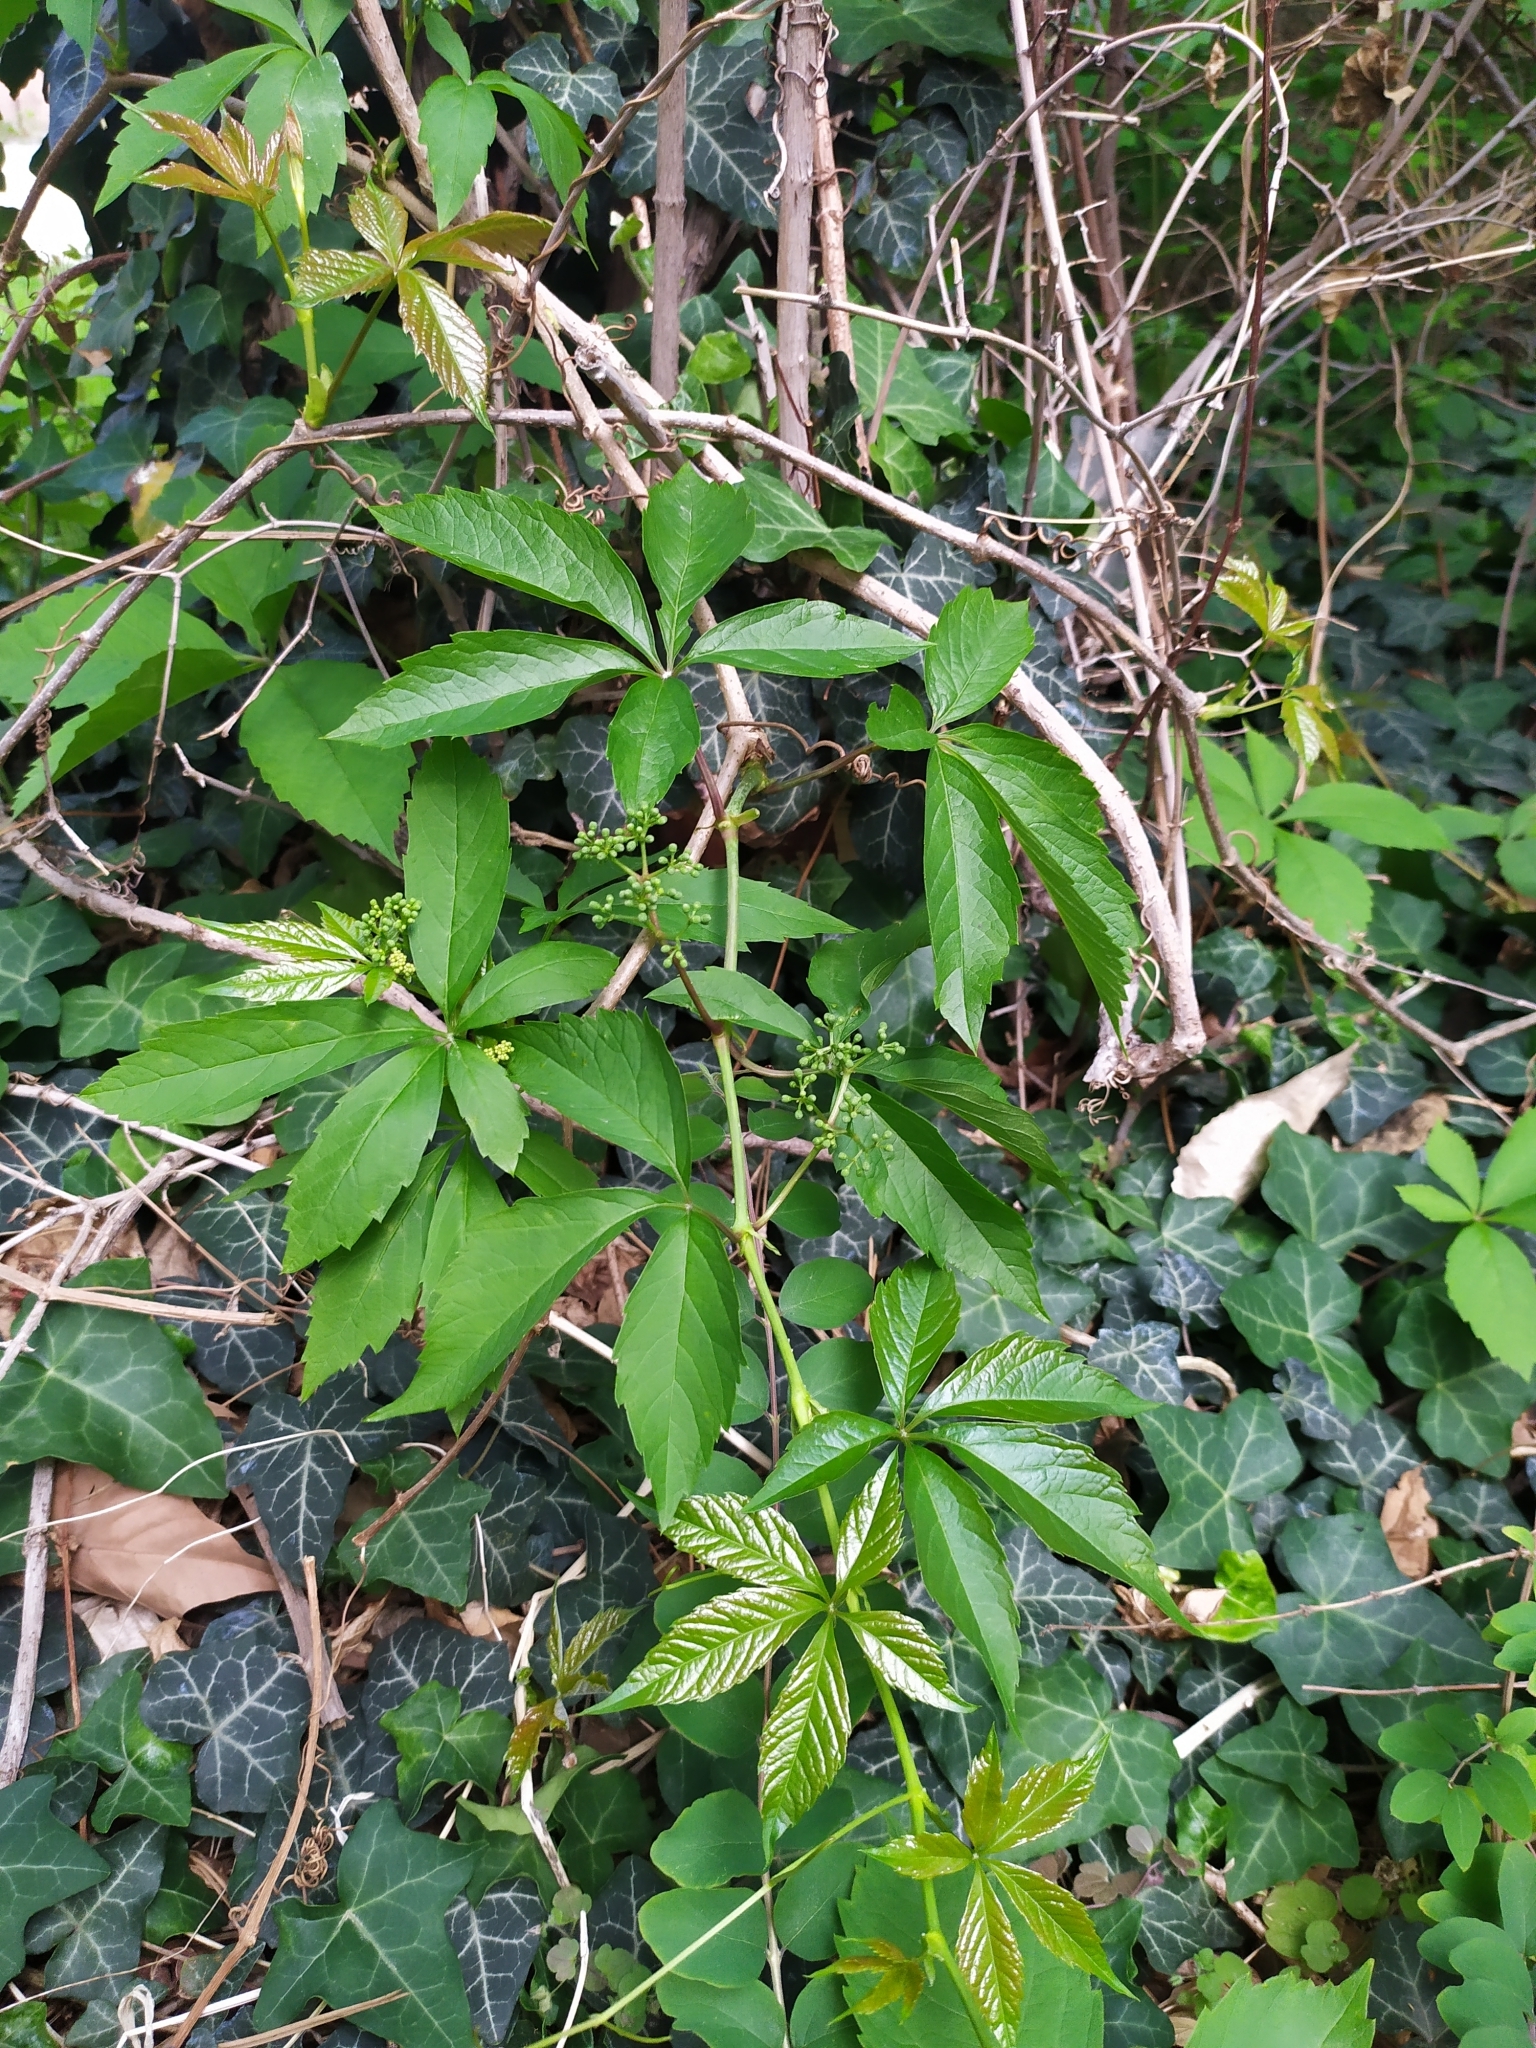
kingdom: Plantae
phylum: Tracheophyta
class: Magnoliopsida
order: Vitales
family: Vitaceae
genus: Parthenocissus
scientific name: Parthenocissus inserta
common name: False virginia-creeper
